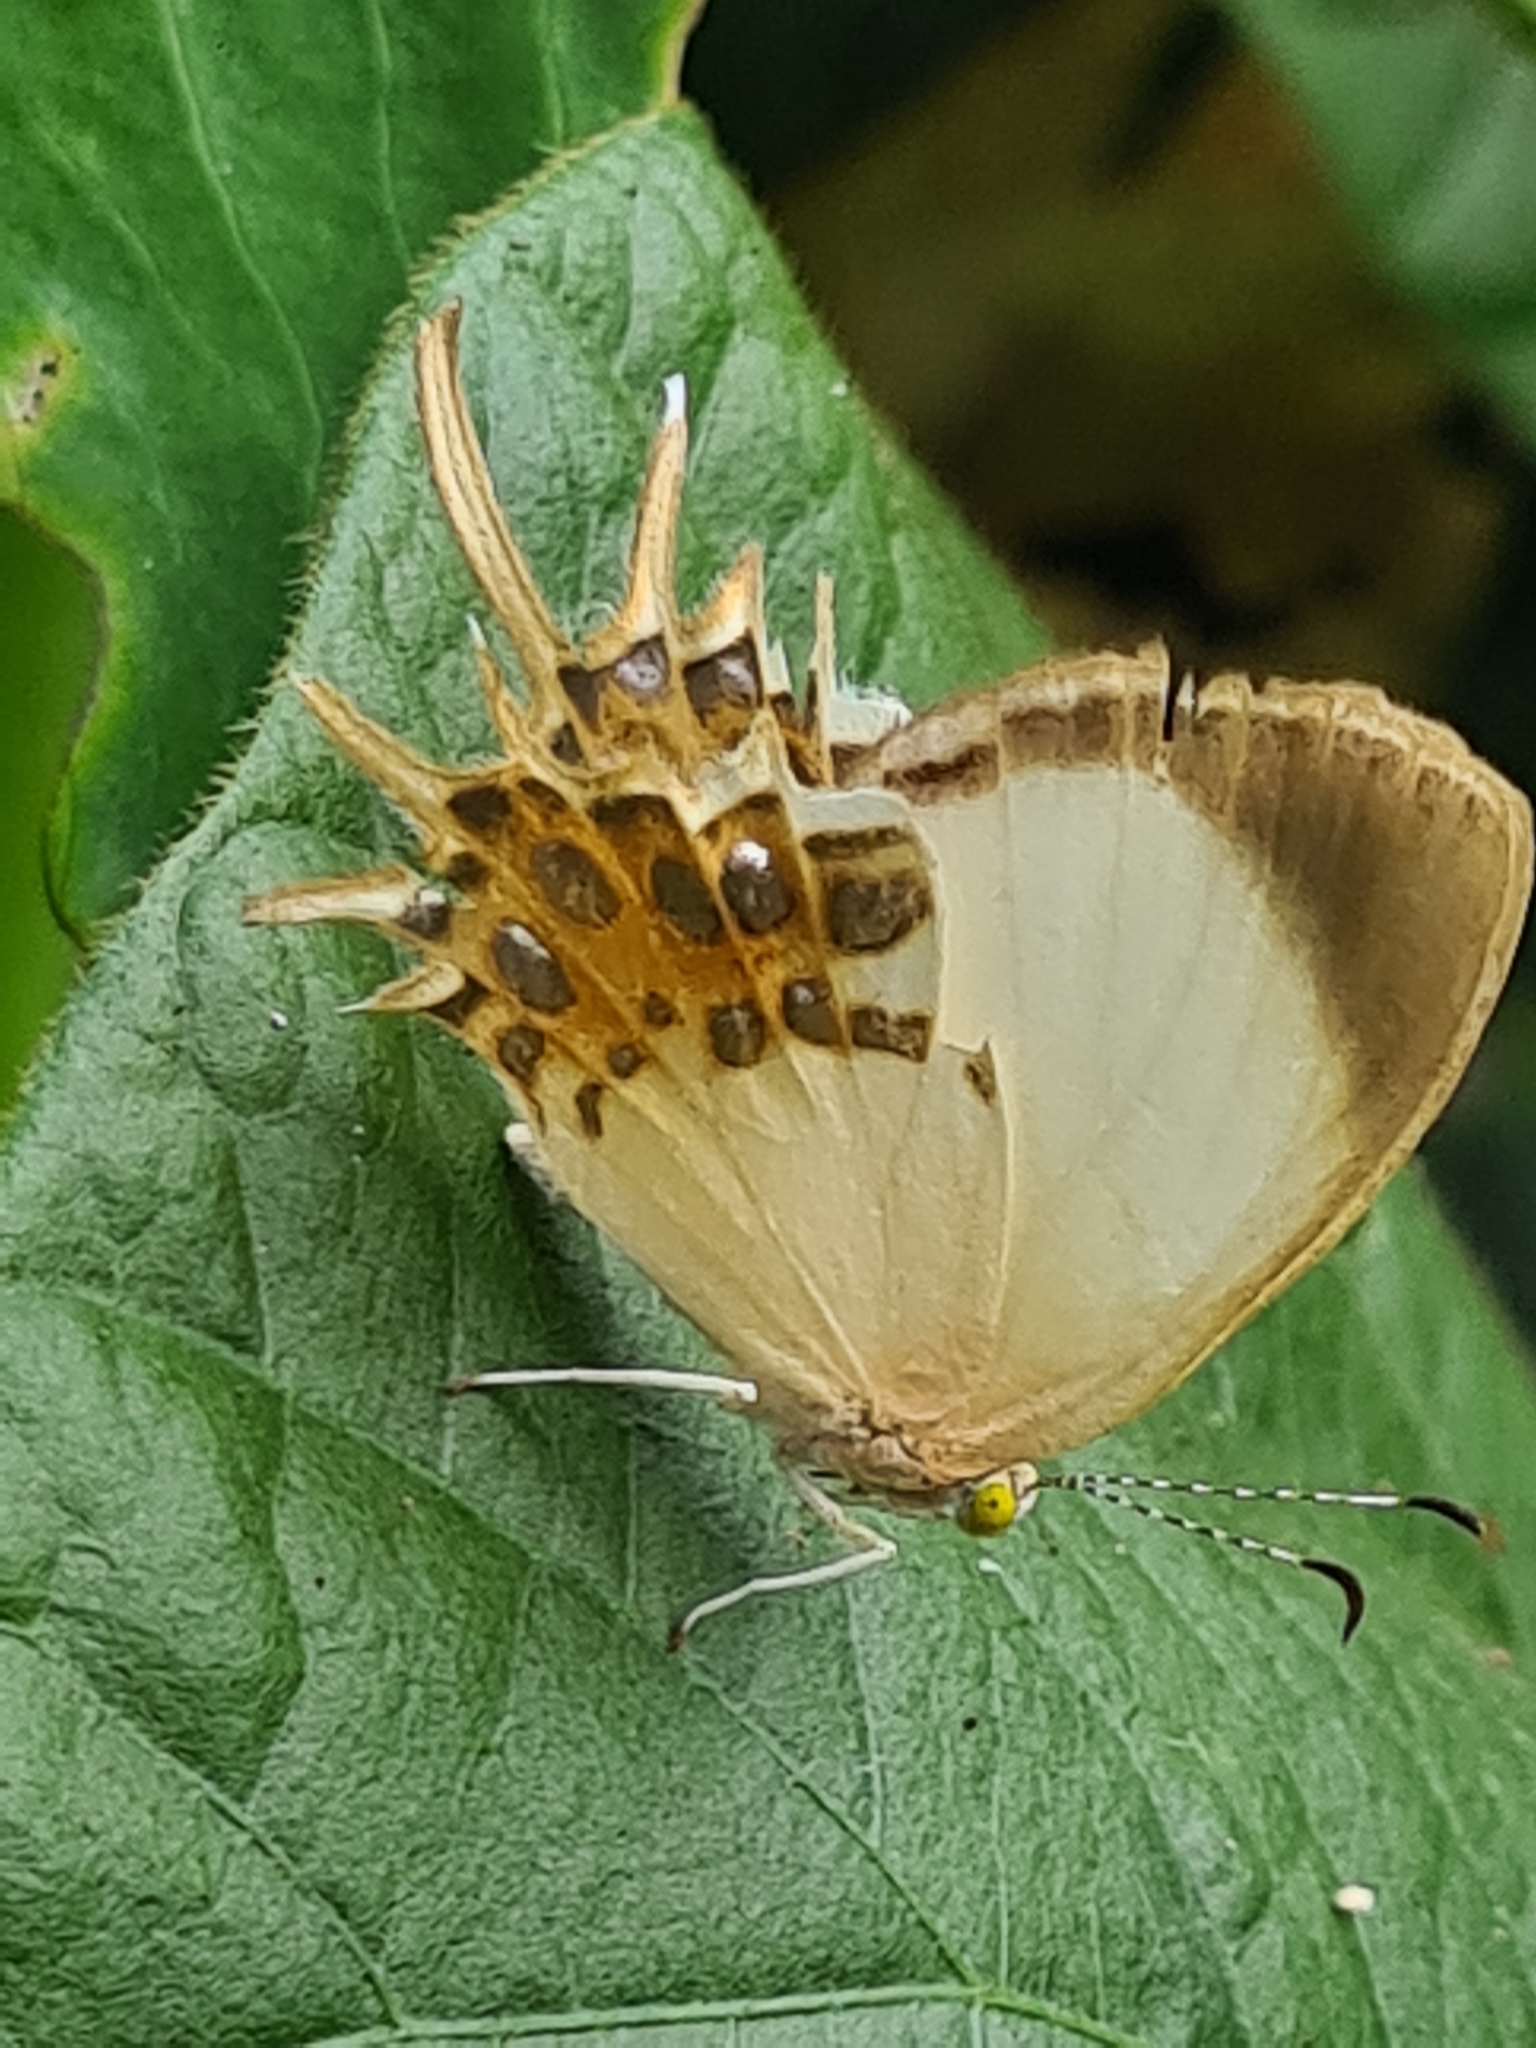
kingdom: Animalia
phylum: Arthropoda
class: Insecta
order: Lepidoptera
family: Riodinidae
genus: Helicopis
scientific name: Helicopis cupido
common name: Spangled cupid
